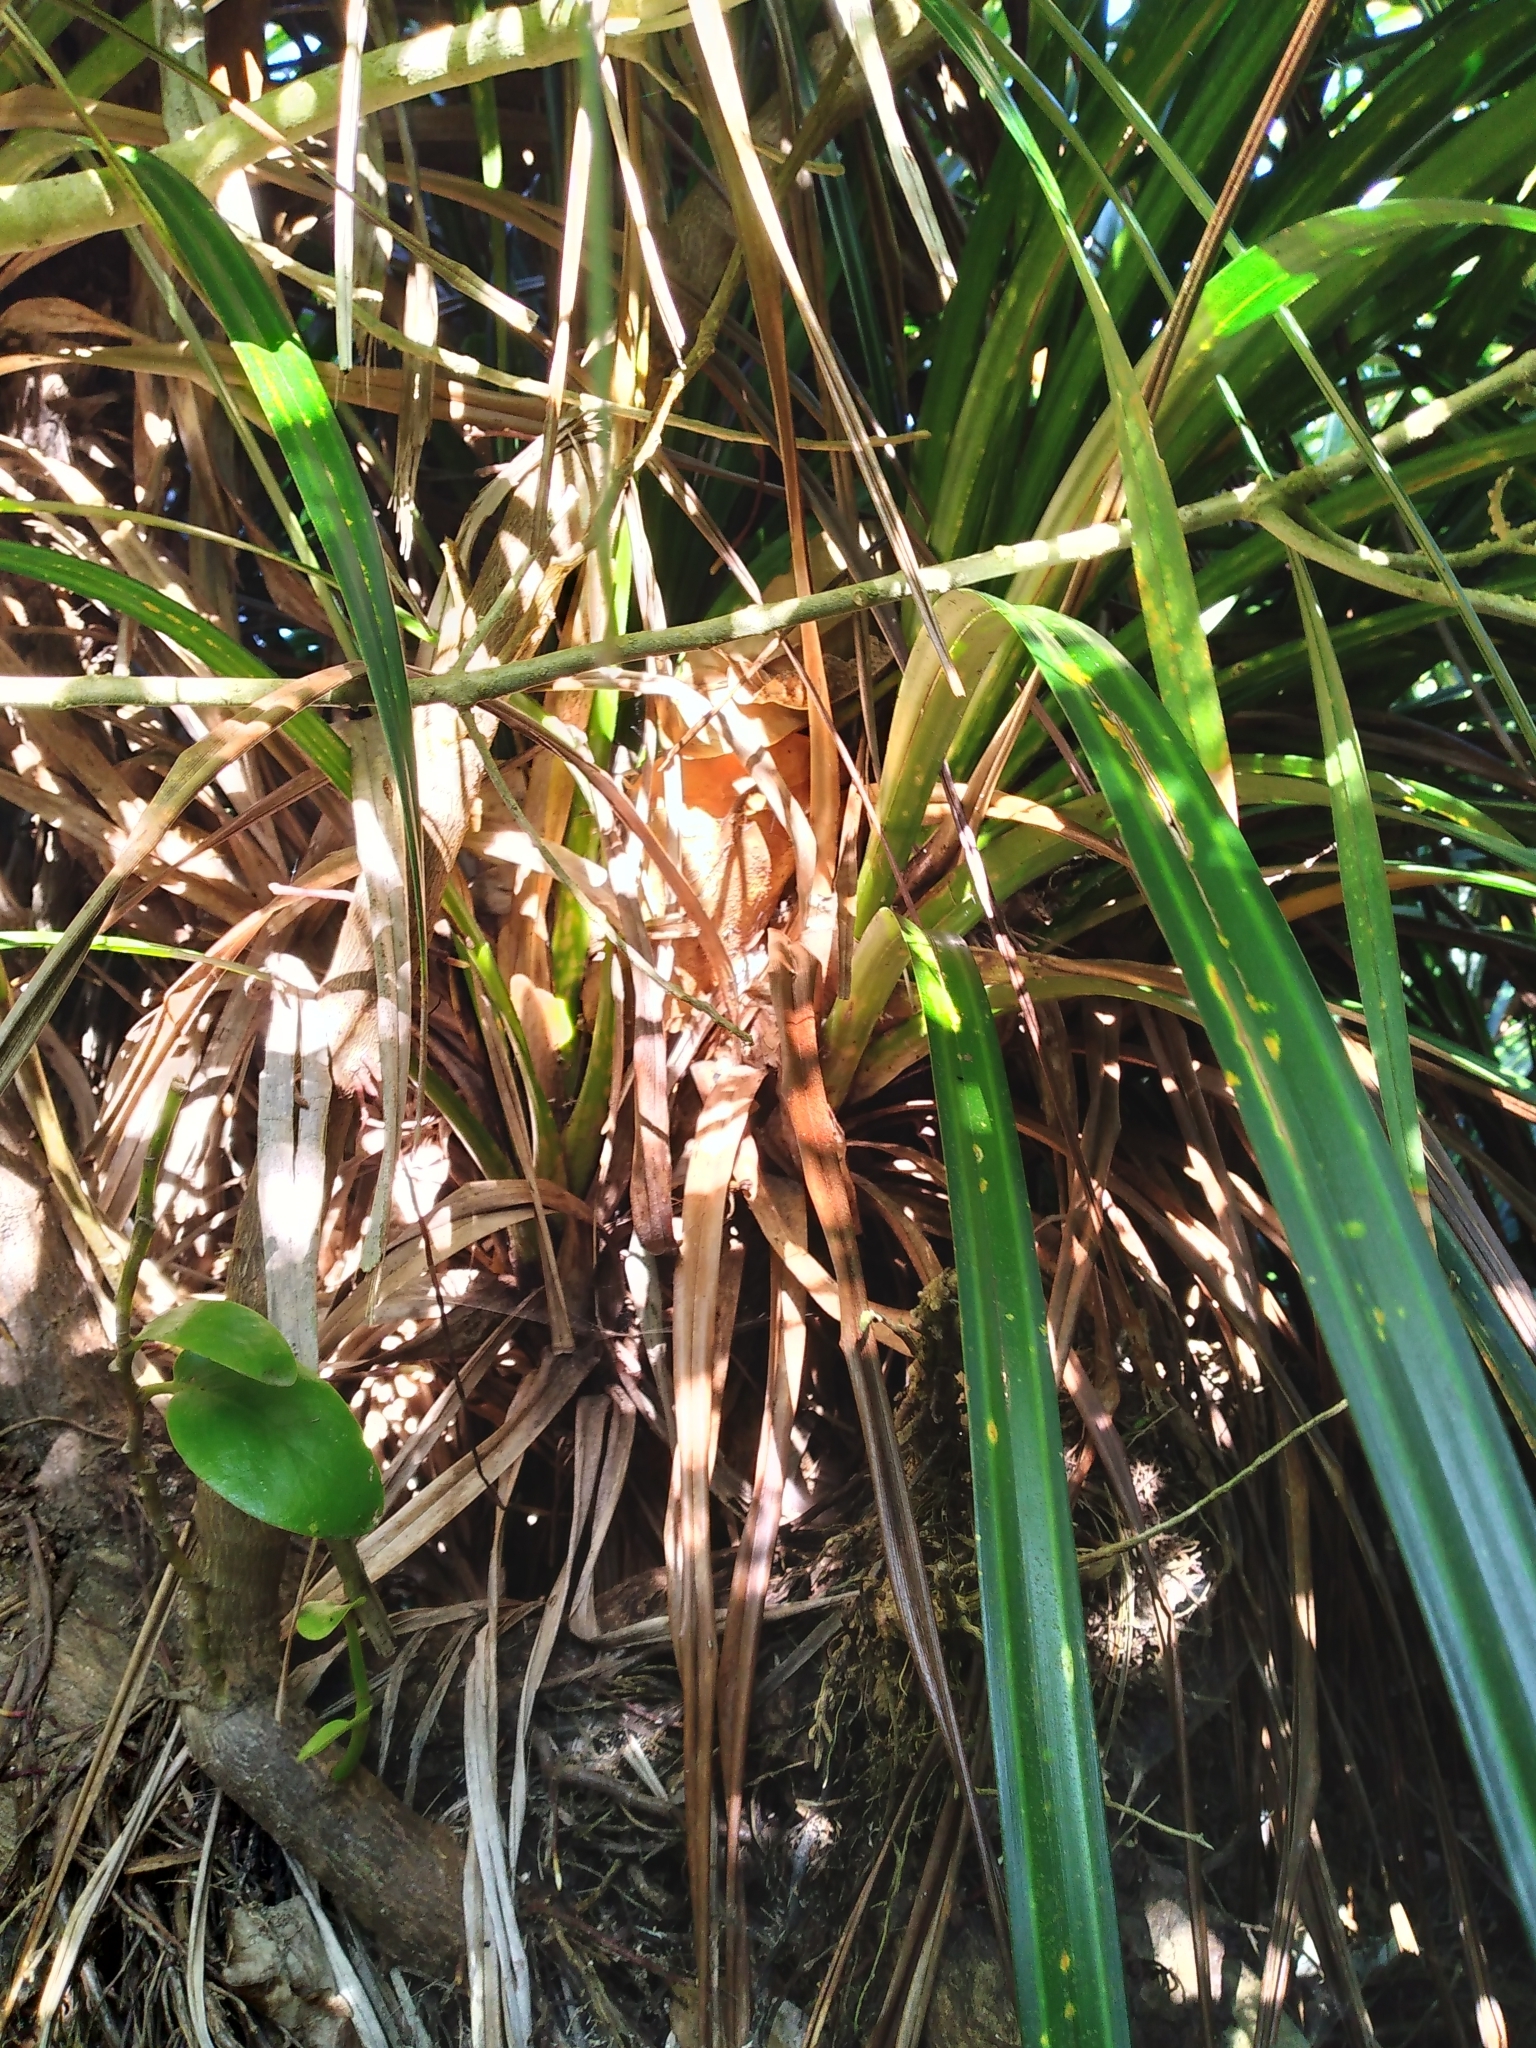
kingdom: Plantae
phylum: Tracheophyta
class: Liliopsida
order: Pandanales
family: Pandanaceae
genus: Freycinetia
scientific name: Freycinetia banksii
